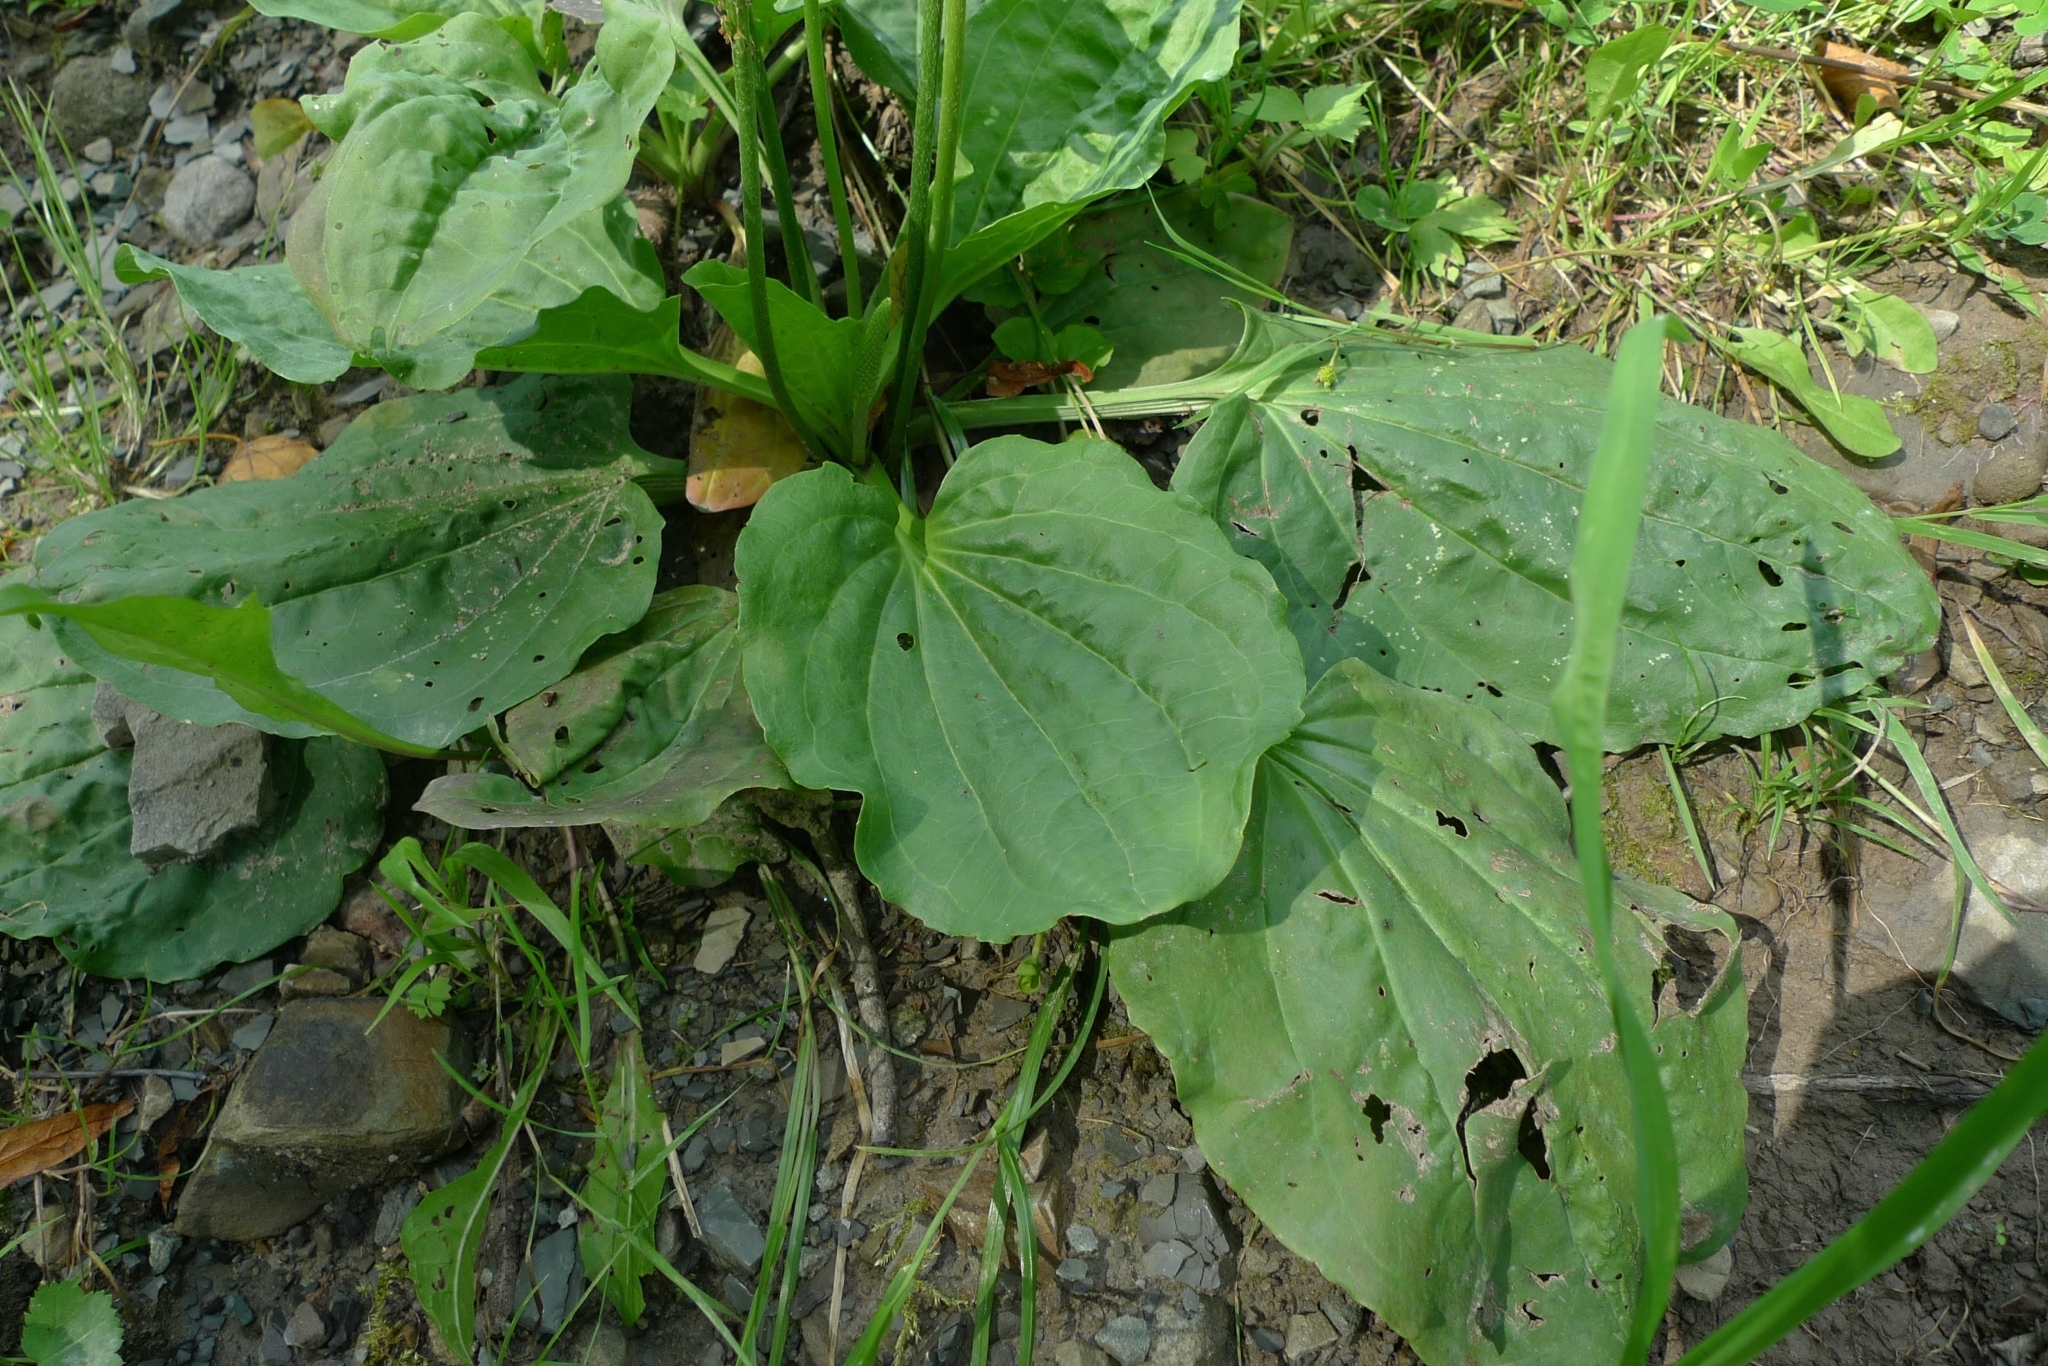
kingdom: Plantae
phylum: Tracheophyta
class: Magnoliopsida
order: Lamiales
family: Plantaginaceae
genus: Plantago
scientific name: Plantago major
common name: Common plantain
